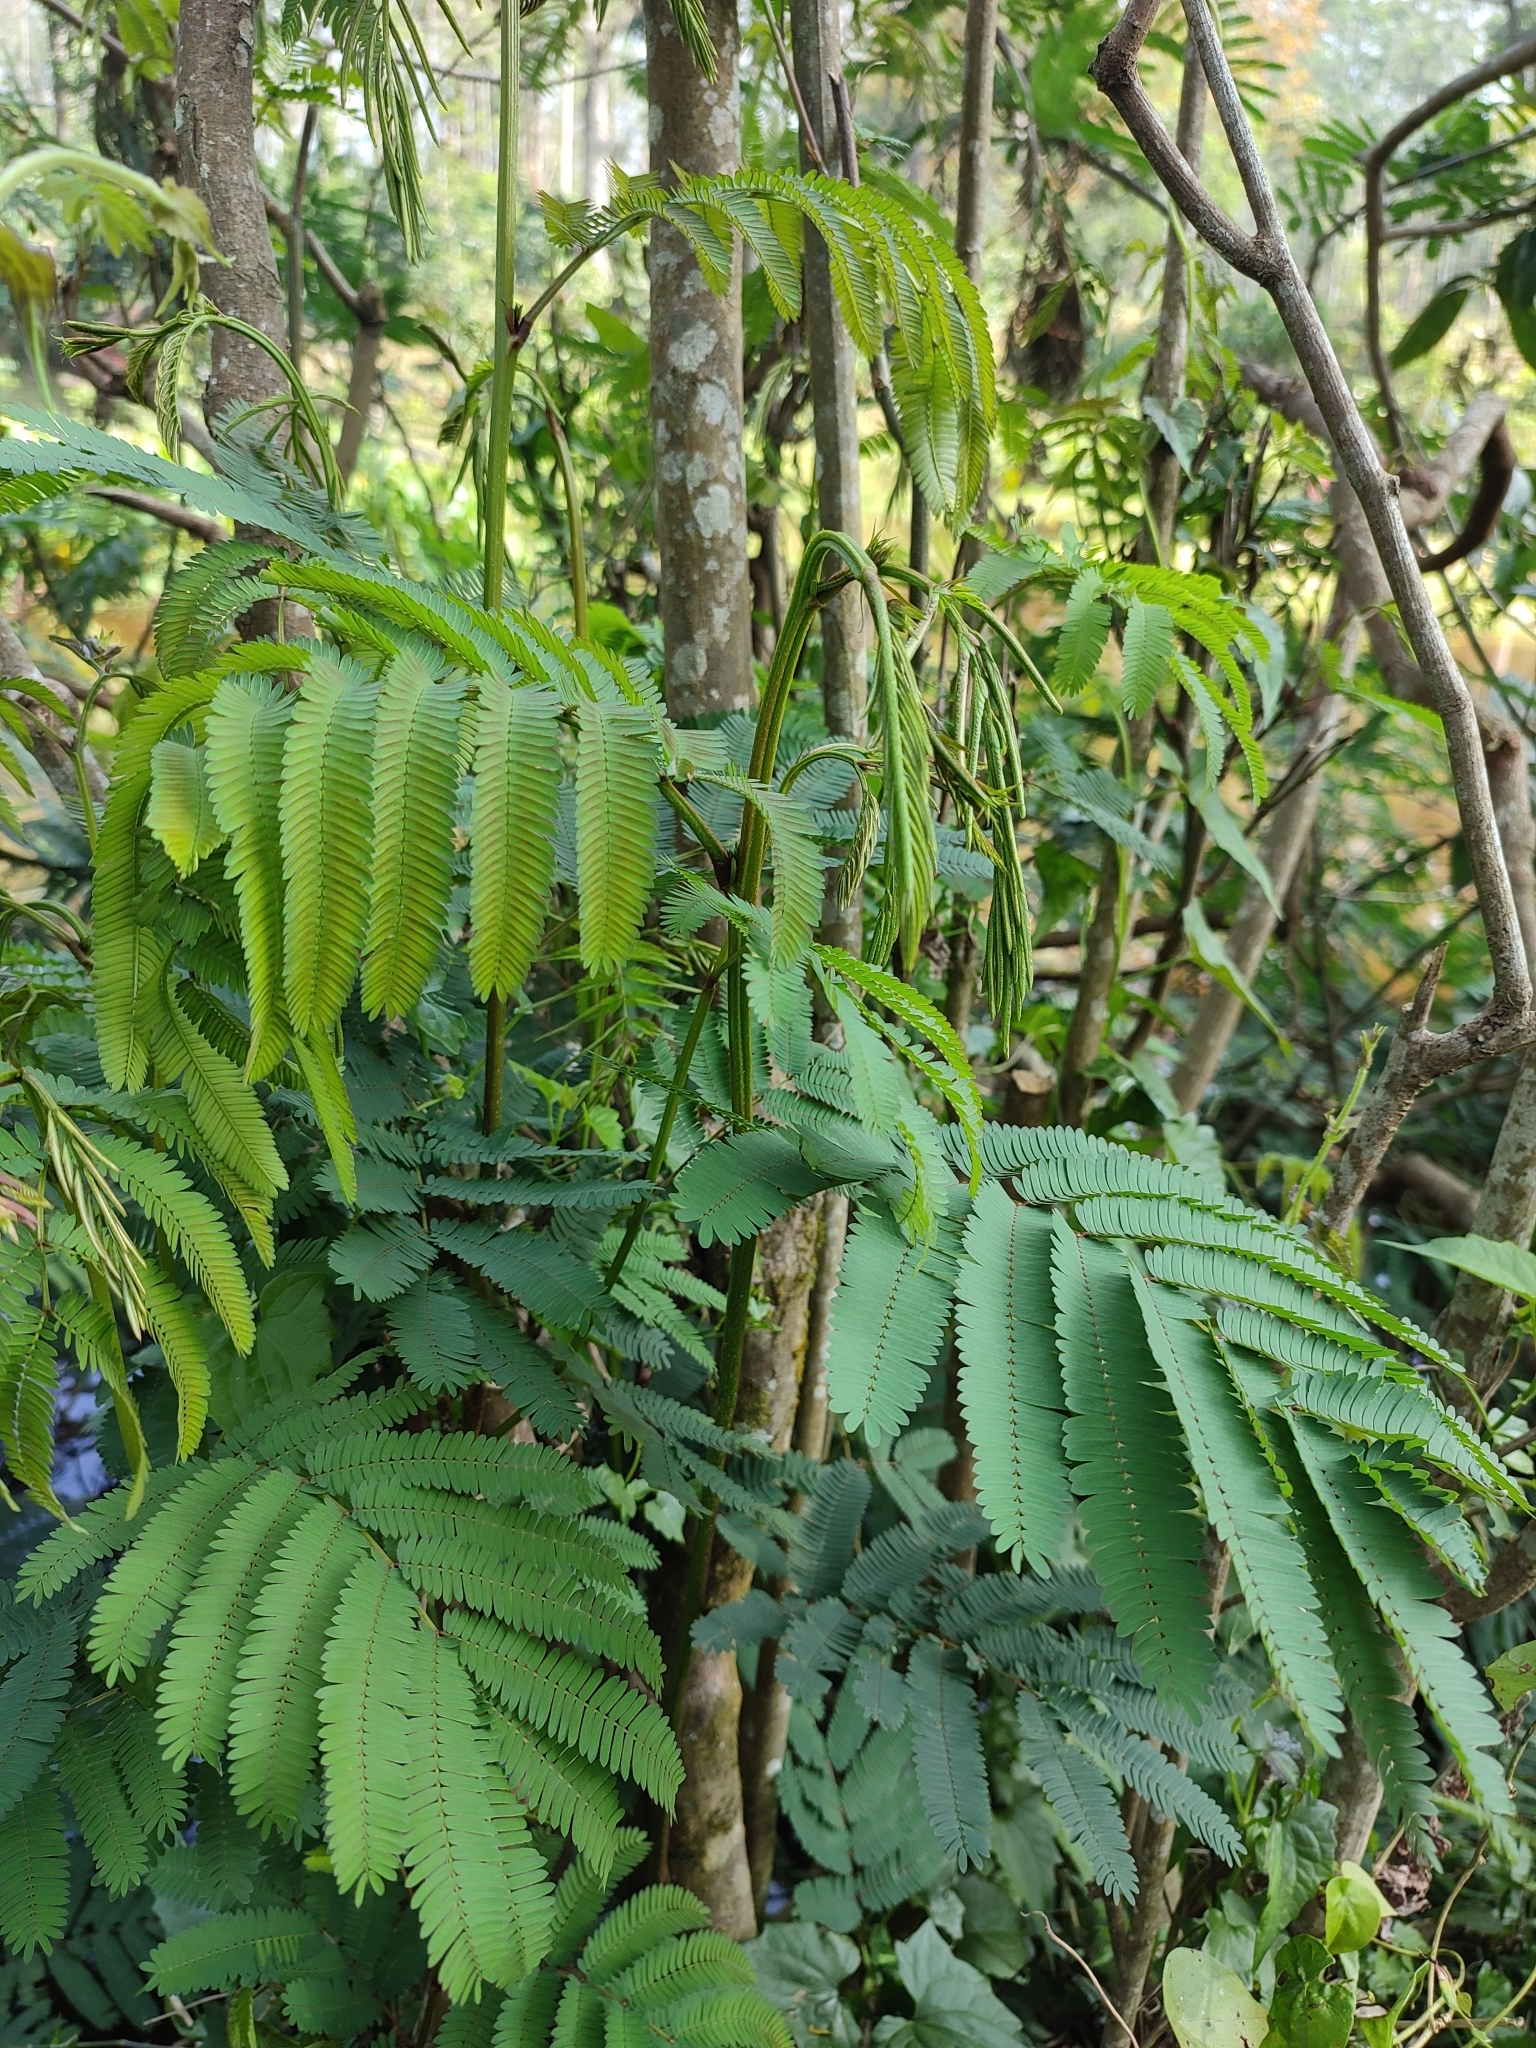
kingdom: Plantae
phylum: Tracheophyta
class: Magnoliopsida
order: Fabales
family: Fabaceae
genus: Calliandra
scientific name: Calliandra houstoniana
